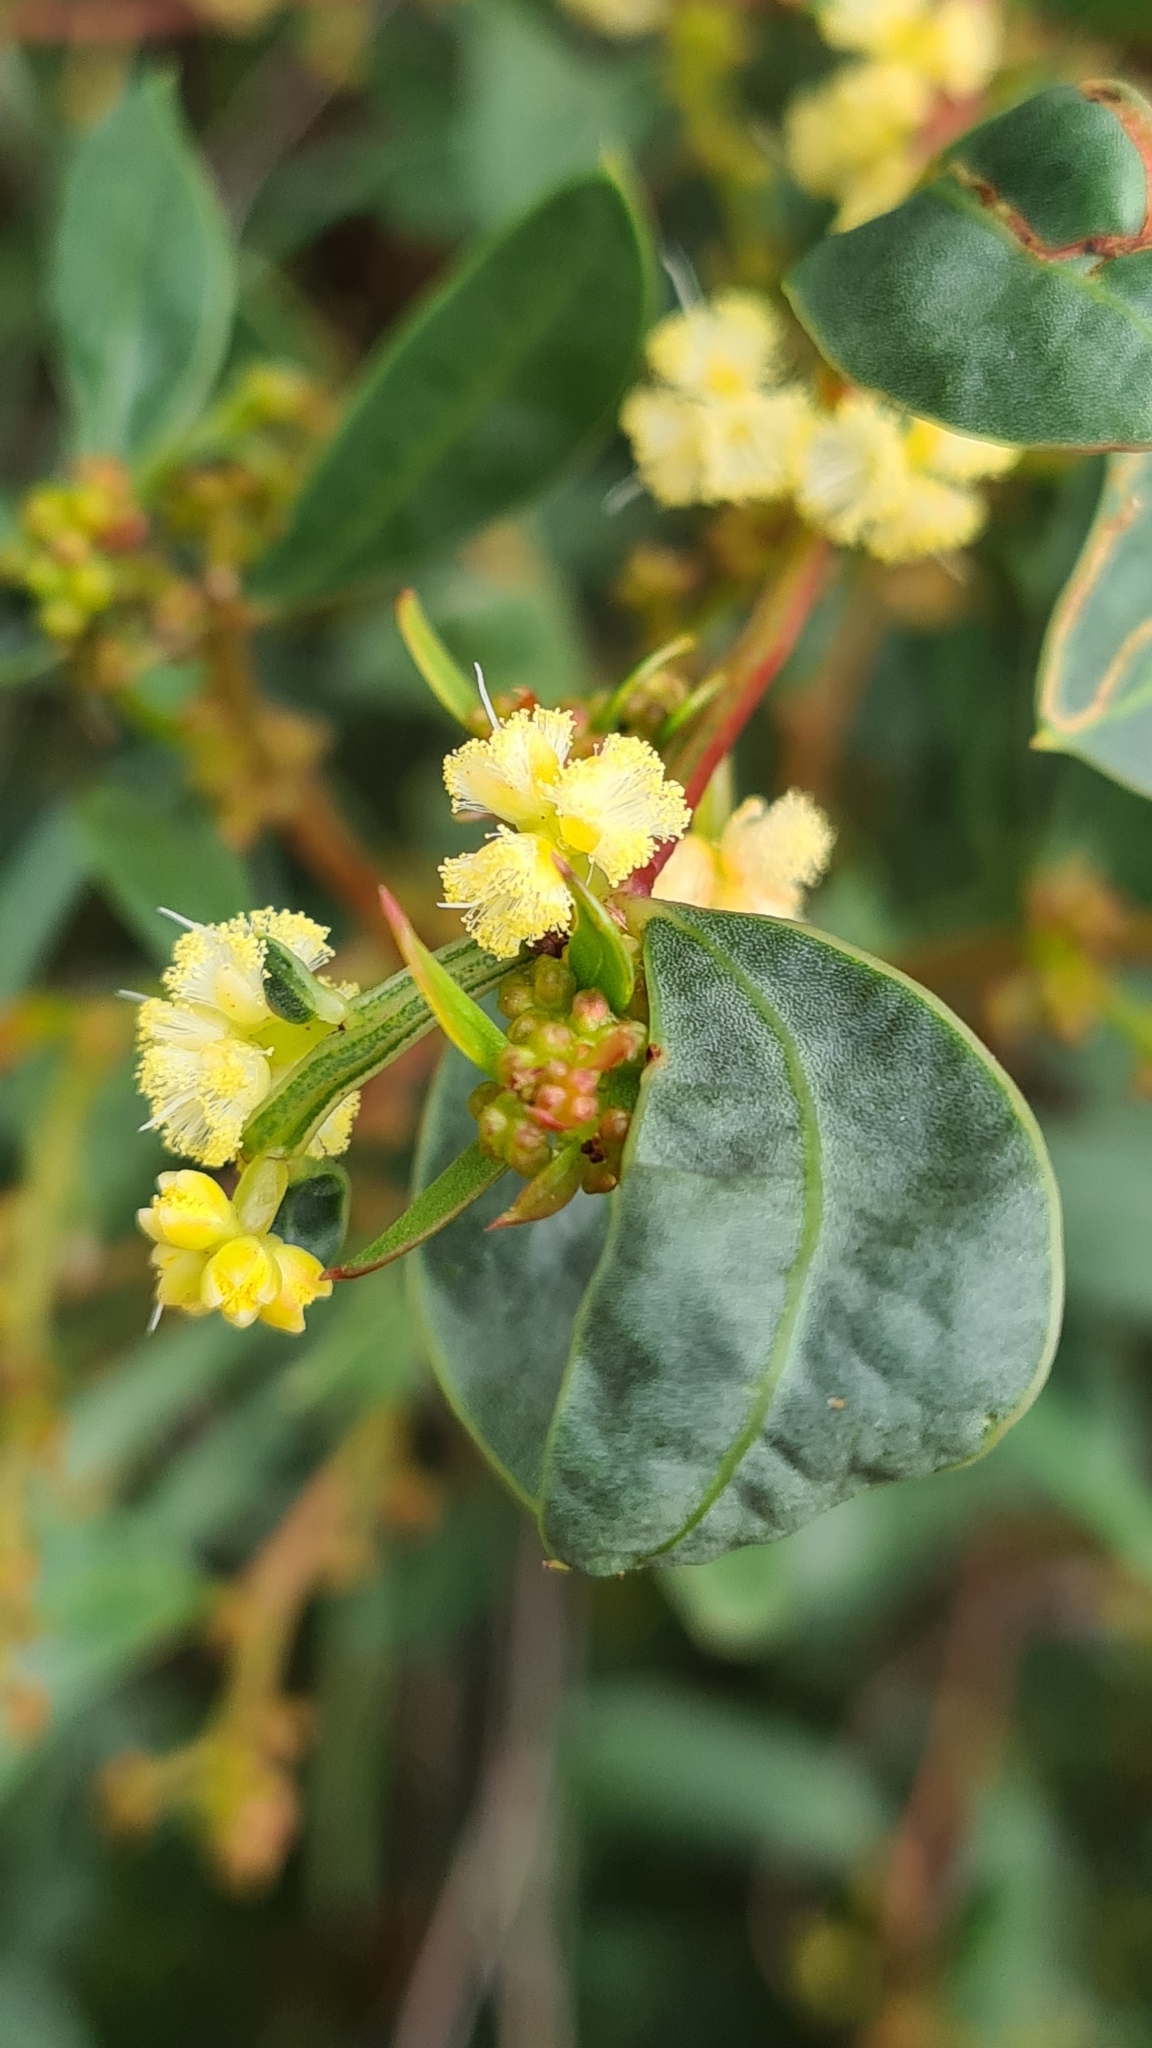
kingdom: Plantae
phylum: Tracheophyta
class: Magnoliopsida
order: Fabales
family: Fabaceae
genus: Acacia
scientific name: Acacia myrtifolia
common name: Myrtle wattle
